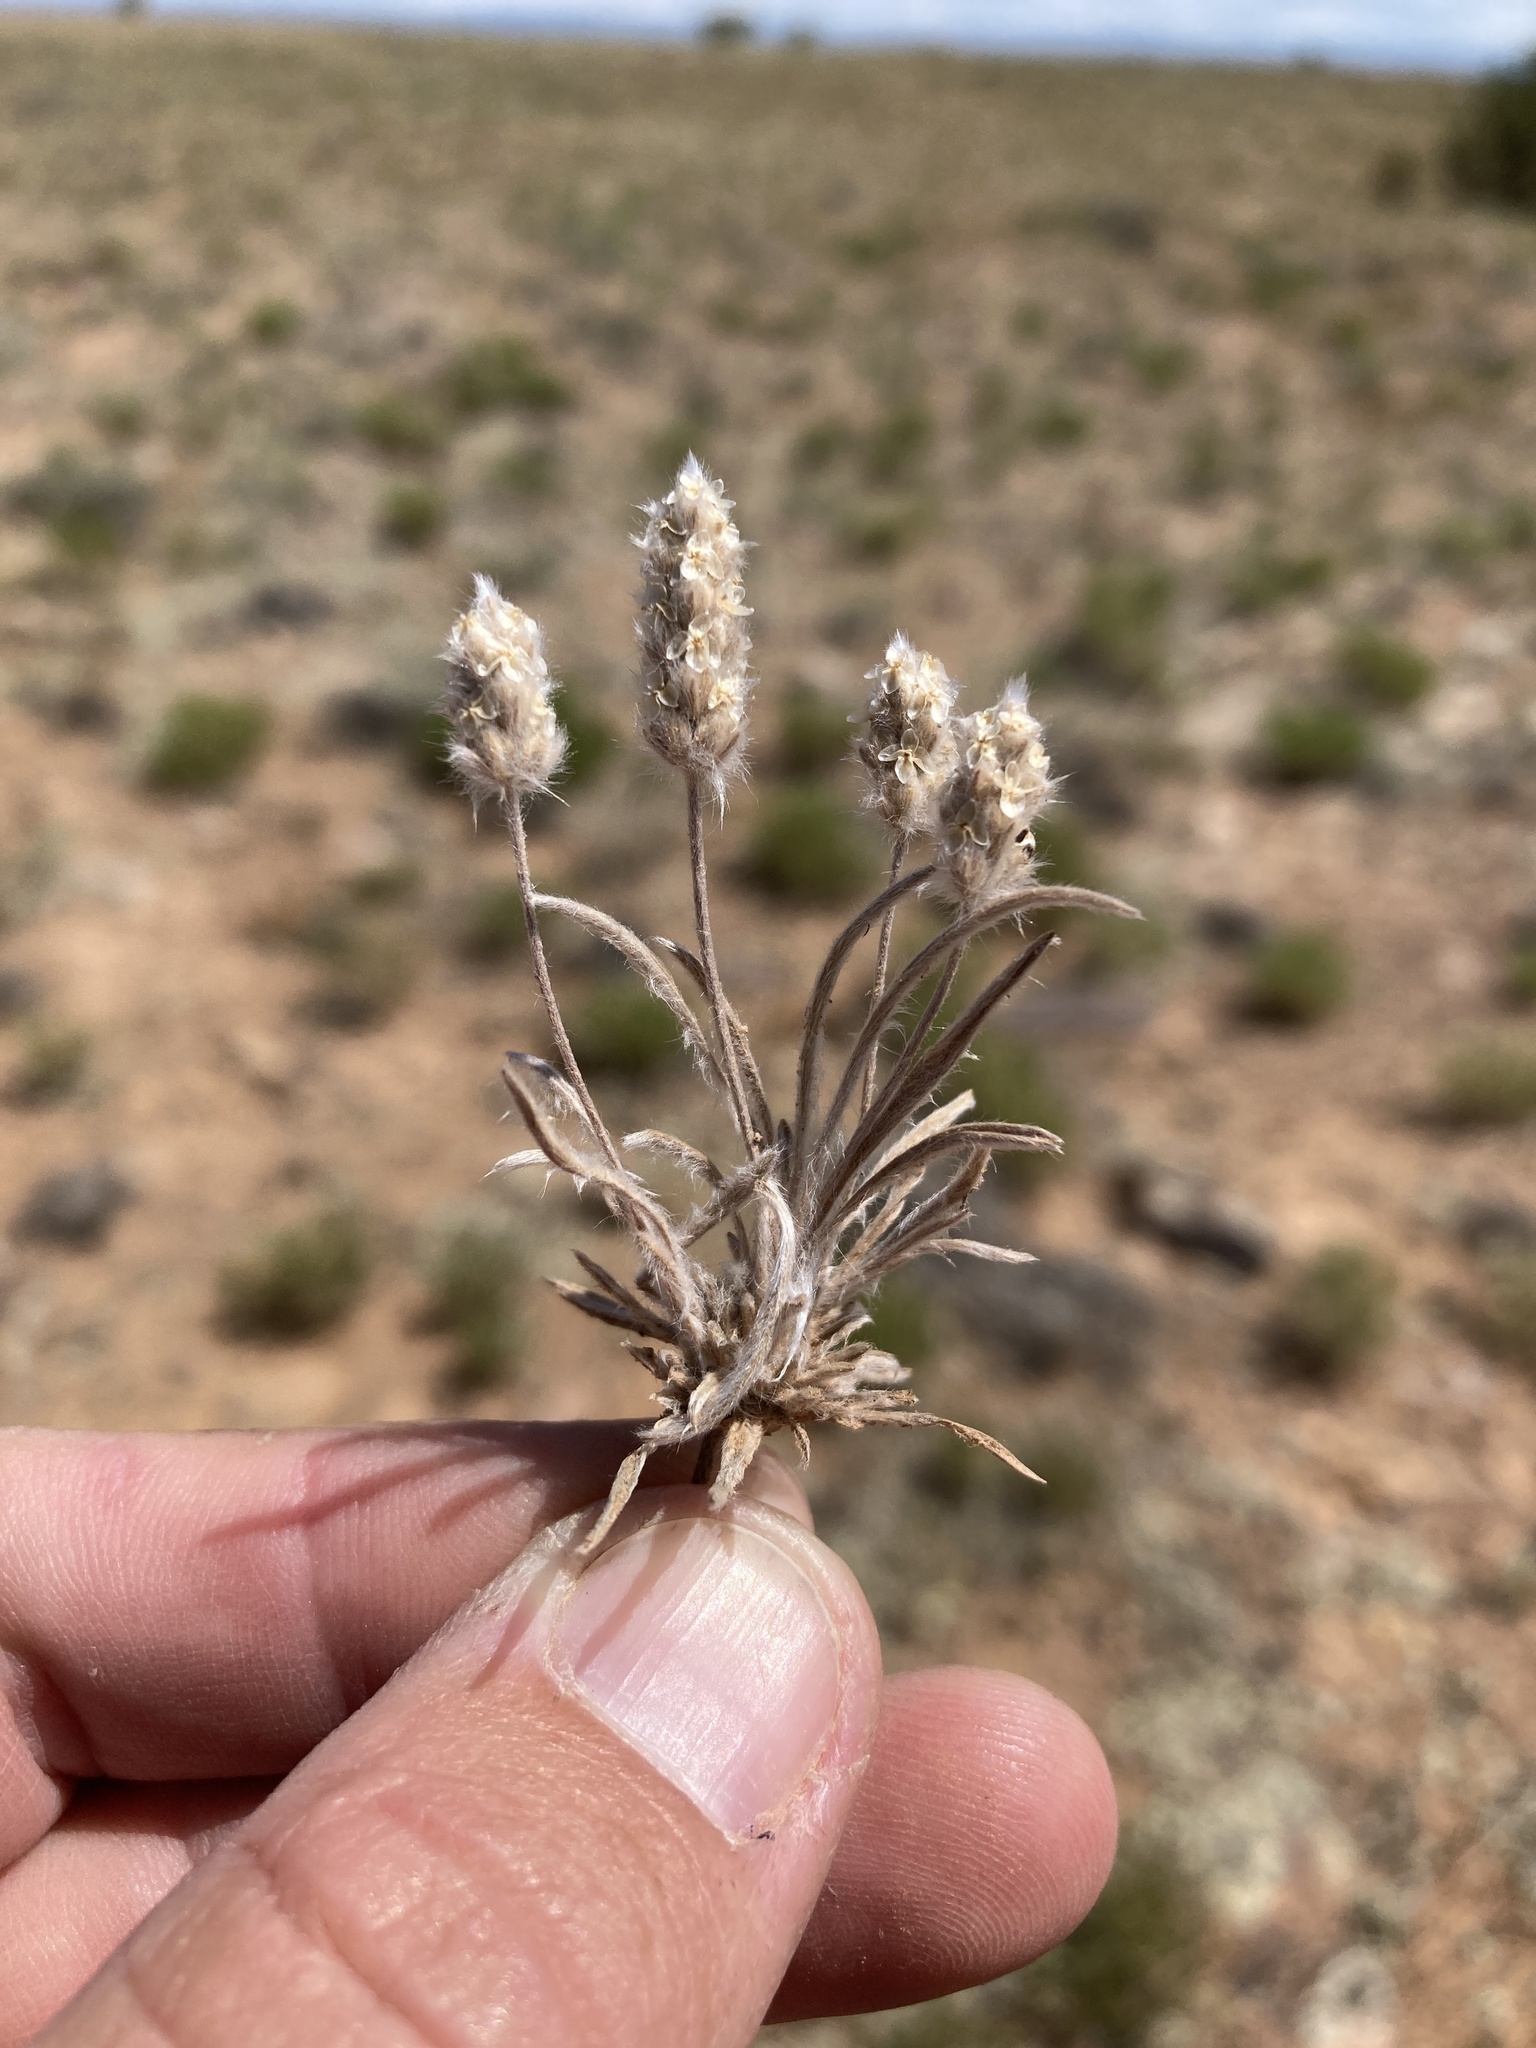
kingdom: Plantae
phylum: Tracheophyta
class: Magnoliopsida
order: Lamiales
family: Plantaginaceae
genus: Plantago
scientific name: Plantago patagonica
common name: Patagonia indian-wheat
